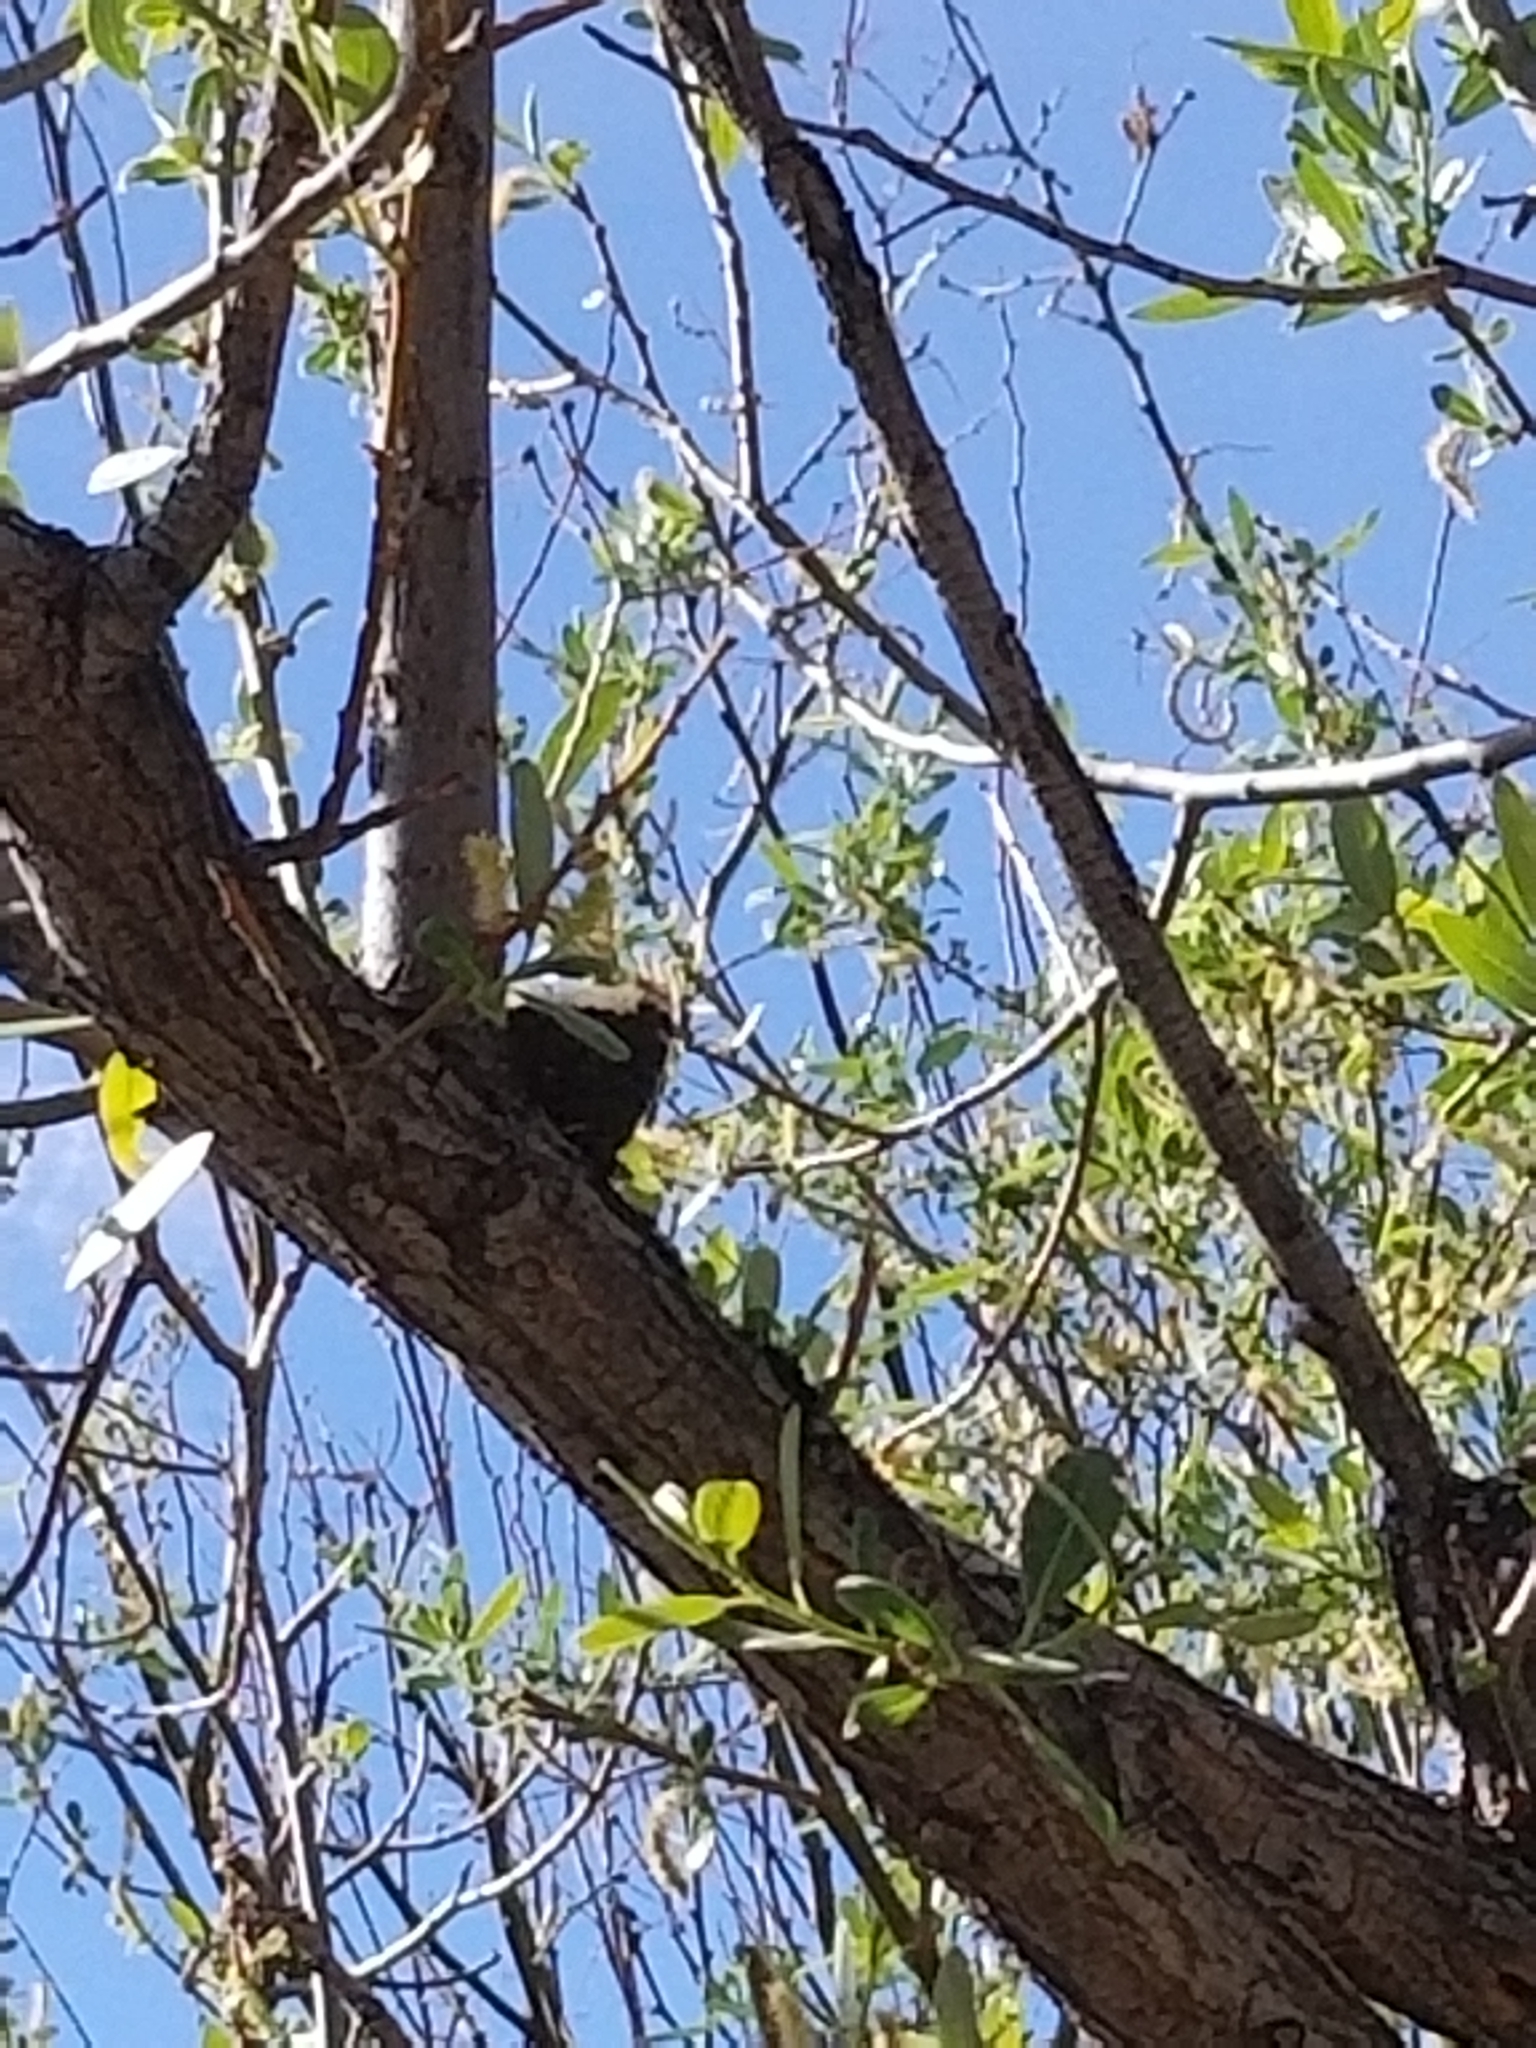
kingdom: Animalia
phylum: Arthropoda
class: Insecta
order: Lepidoptera
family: Nymphalidae
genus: Nymphalis
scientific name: Nymphalis antiopa
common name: Camberwell beauty
